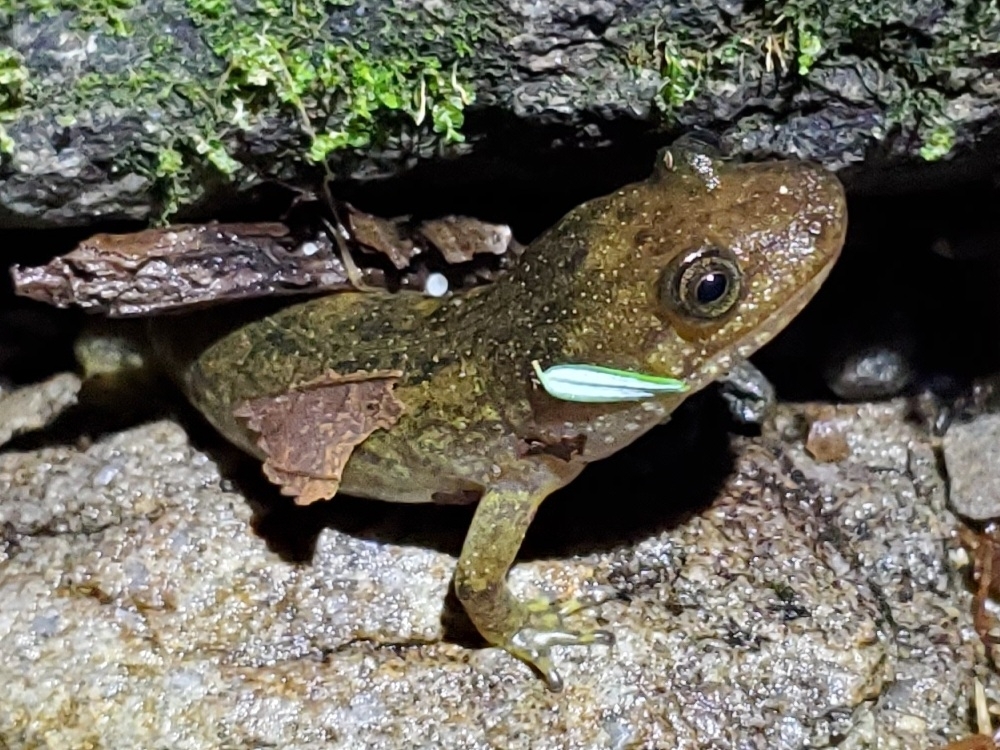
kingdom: Animalia
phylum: Chordata
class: Amphibia
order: Caudata
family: Plethodontidae
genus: Desmognathus
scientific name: Desmognathus
